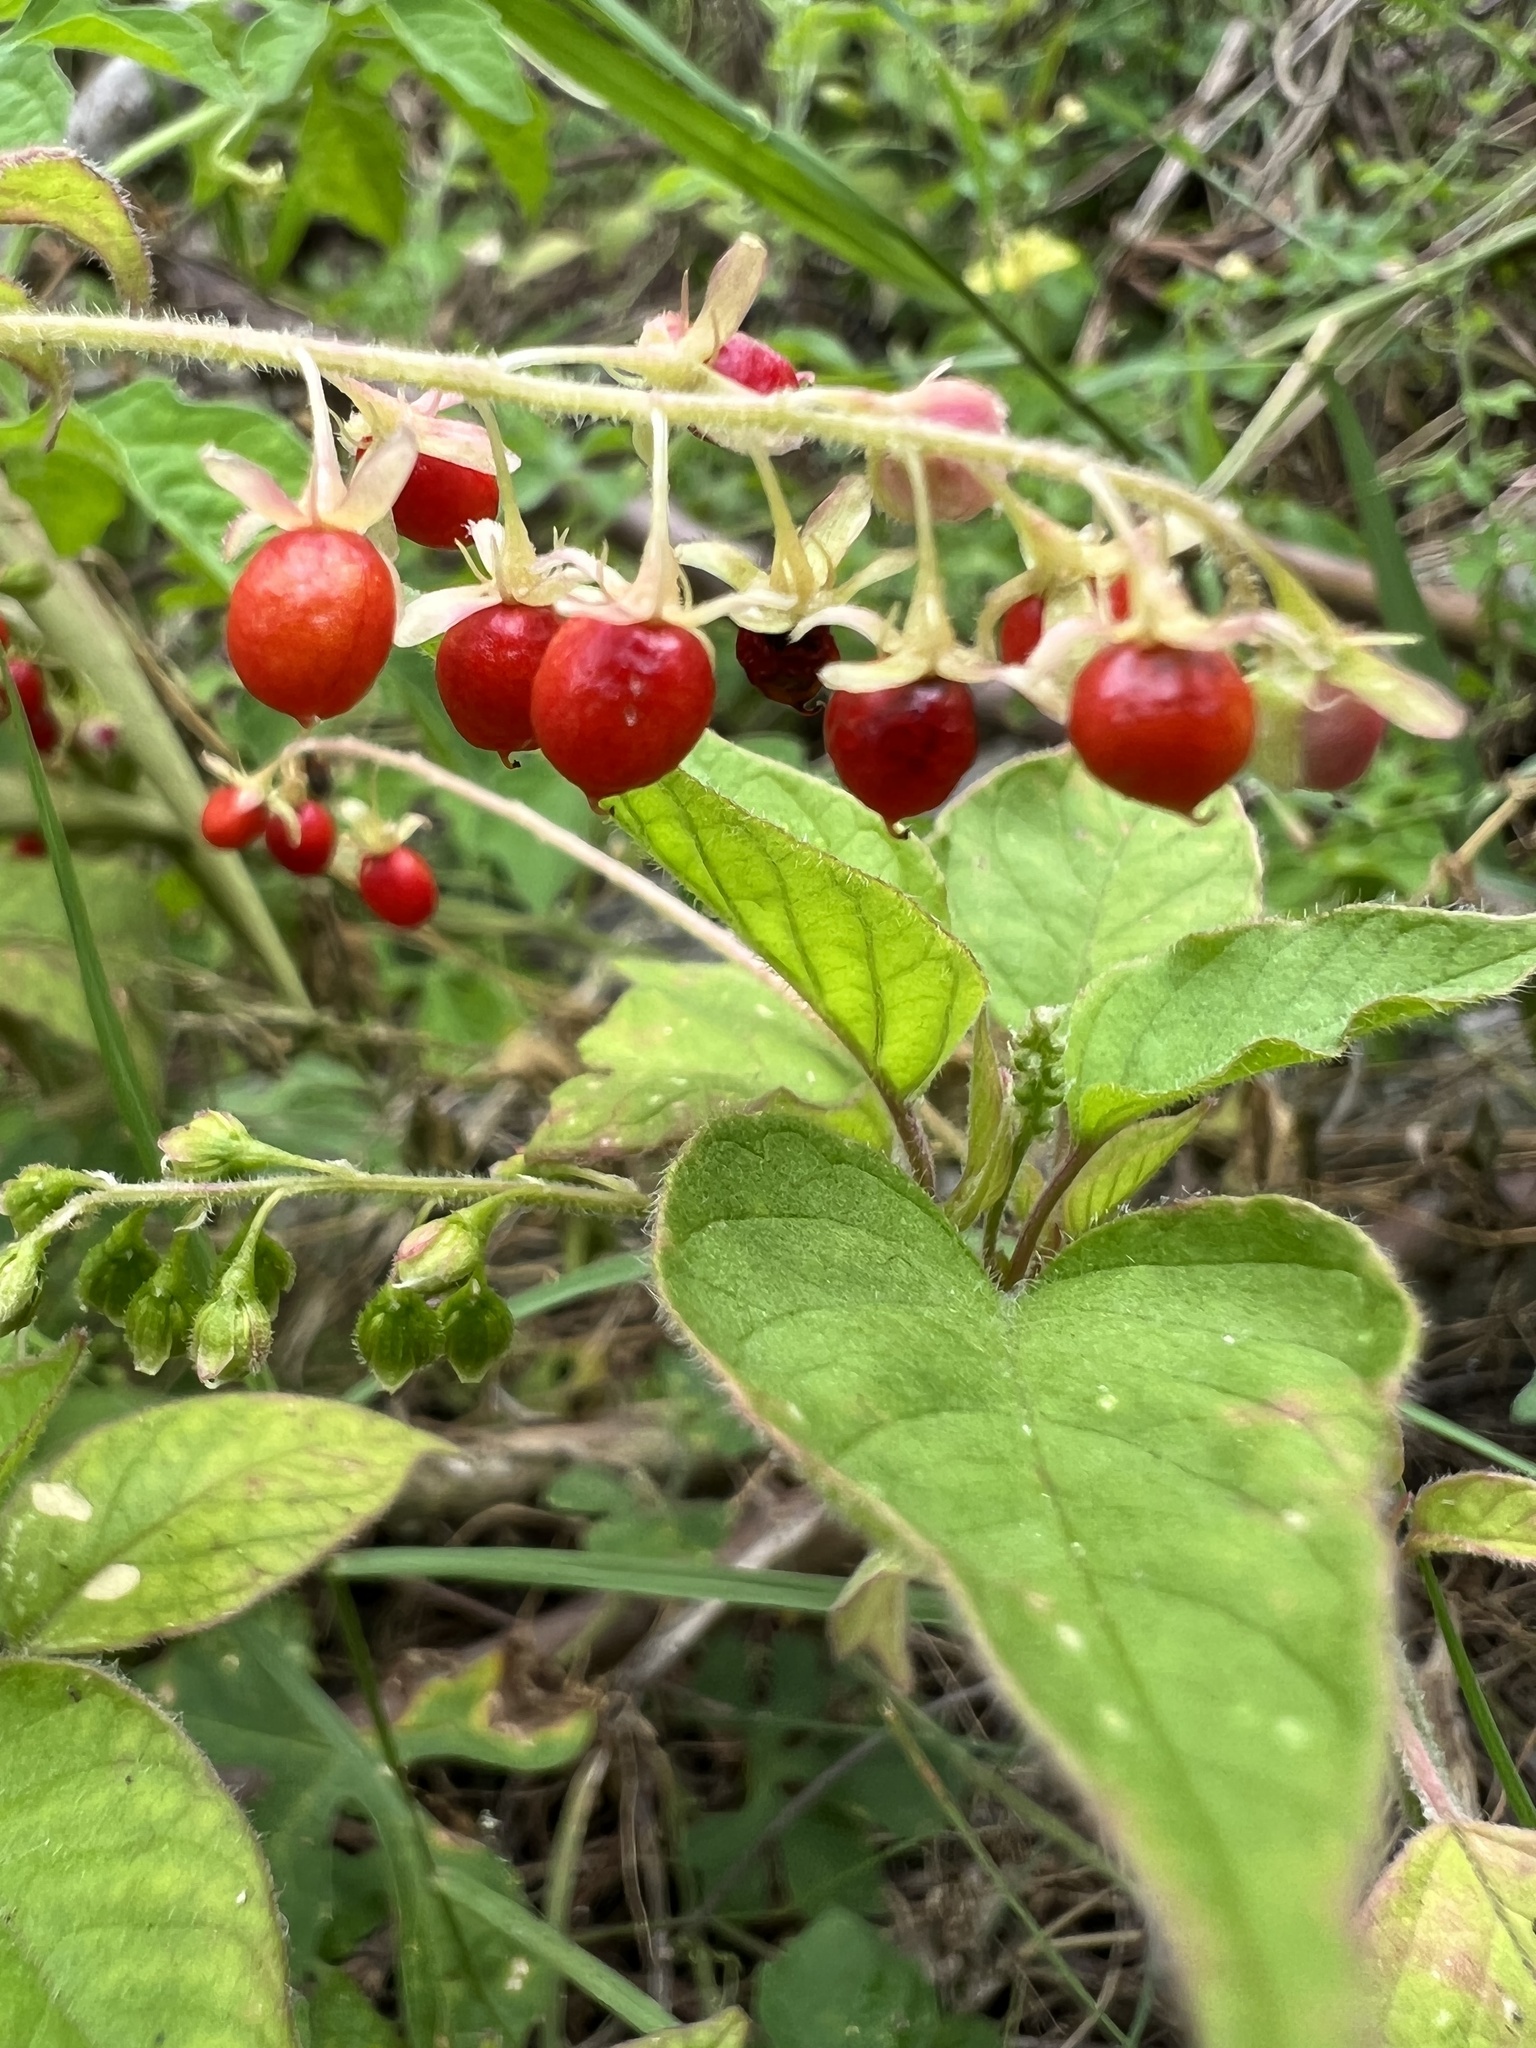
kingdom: Plantae
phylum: Tracheophyta
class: Magnoliopsida
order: Caryophyllales
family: Phytolaccaceae
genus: Rivina
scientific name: Rivina humilis
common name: Rougeplant
